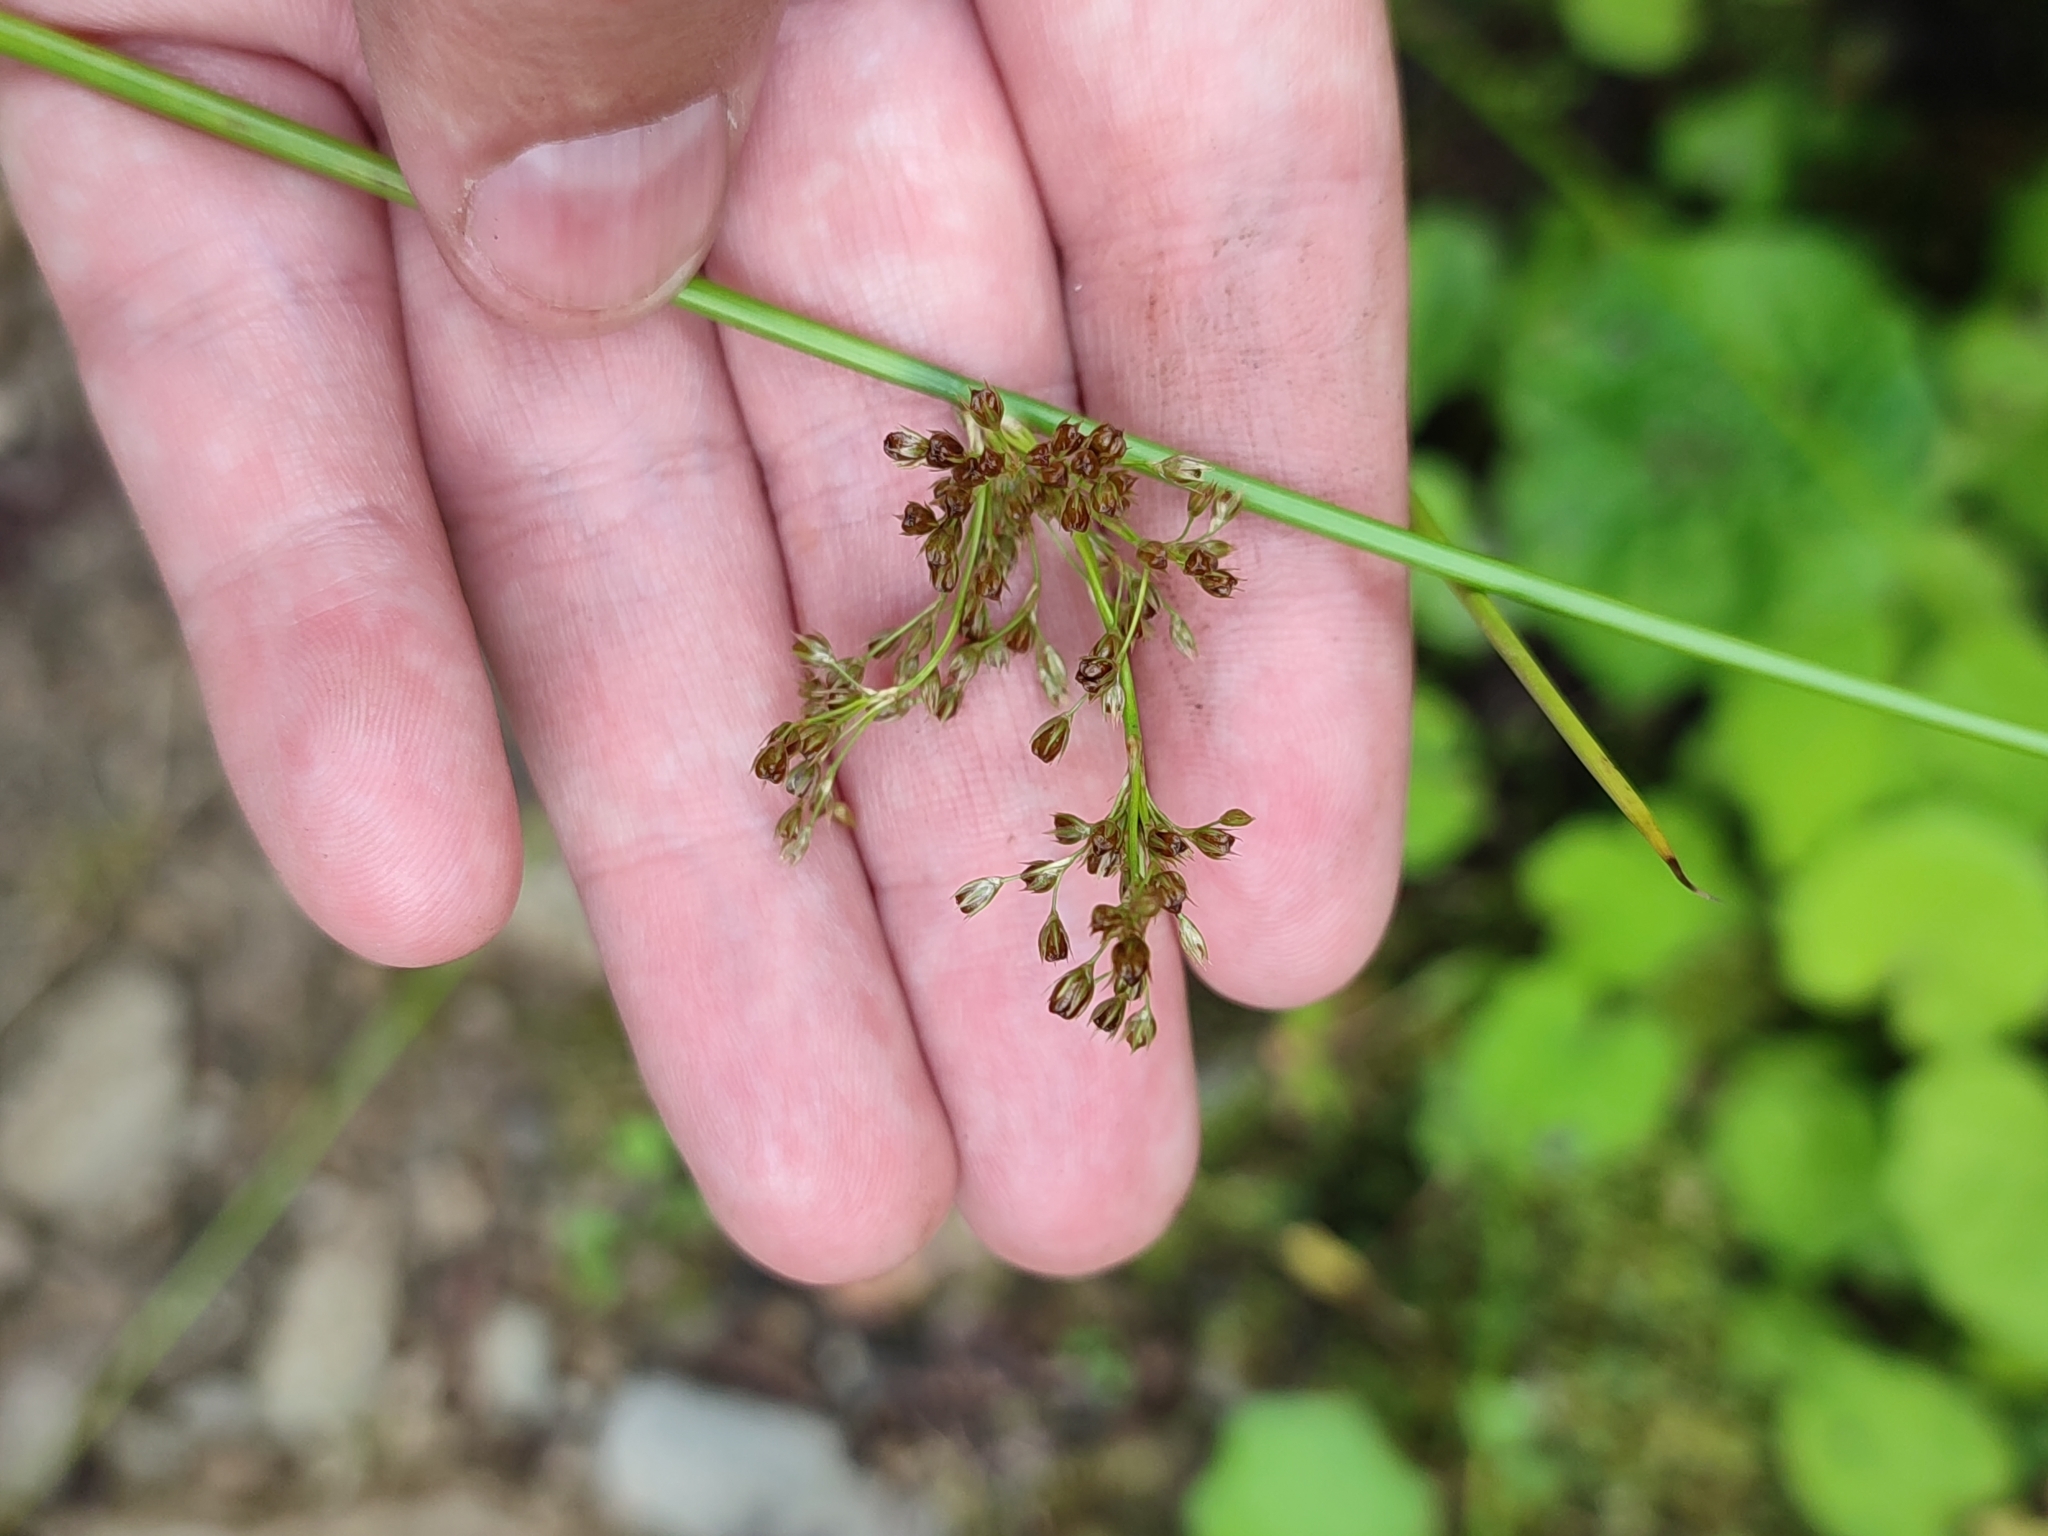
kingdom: Plantae
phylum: Tracheophyta
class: Liliopsida
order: Poales
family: Juncaceae
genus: Juncus
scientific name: Juncus effusus
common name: Soft rush
